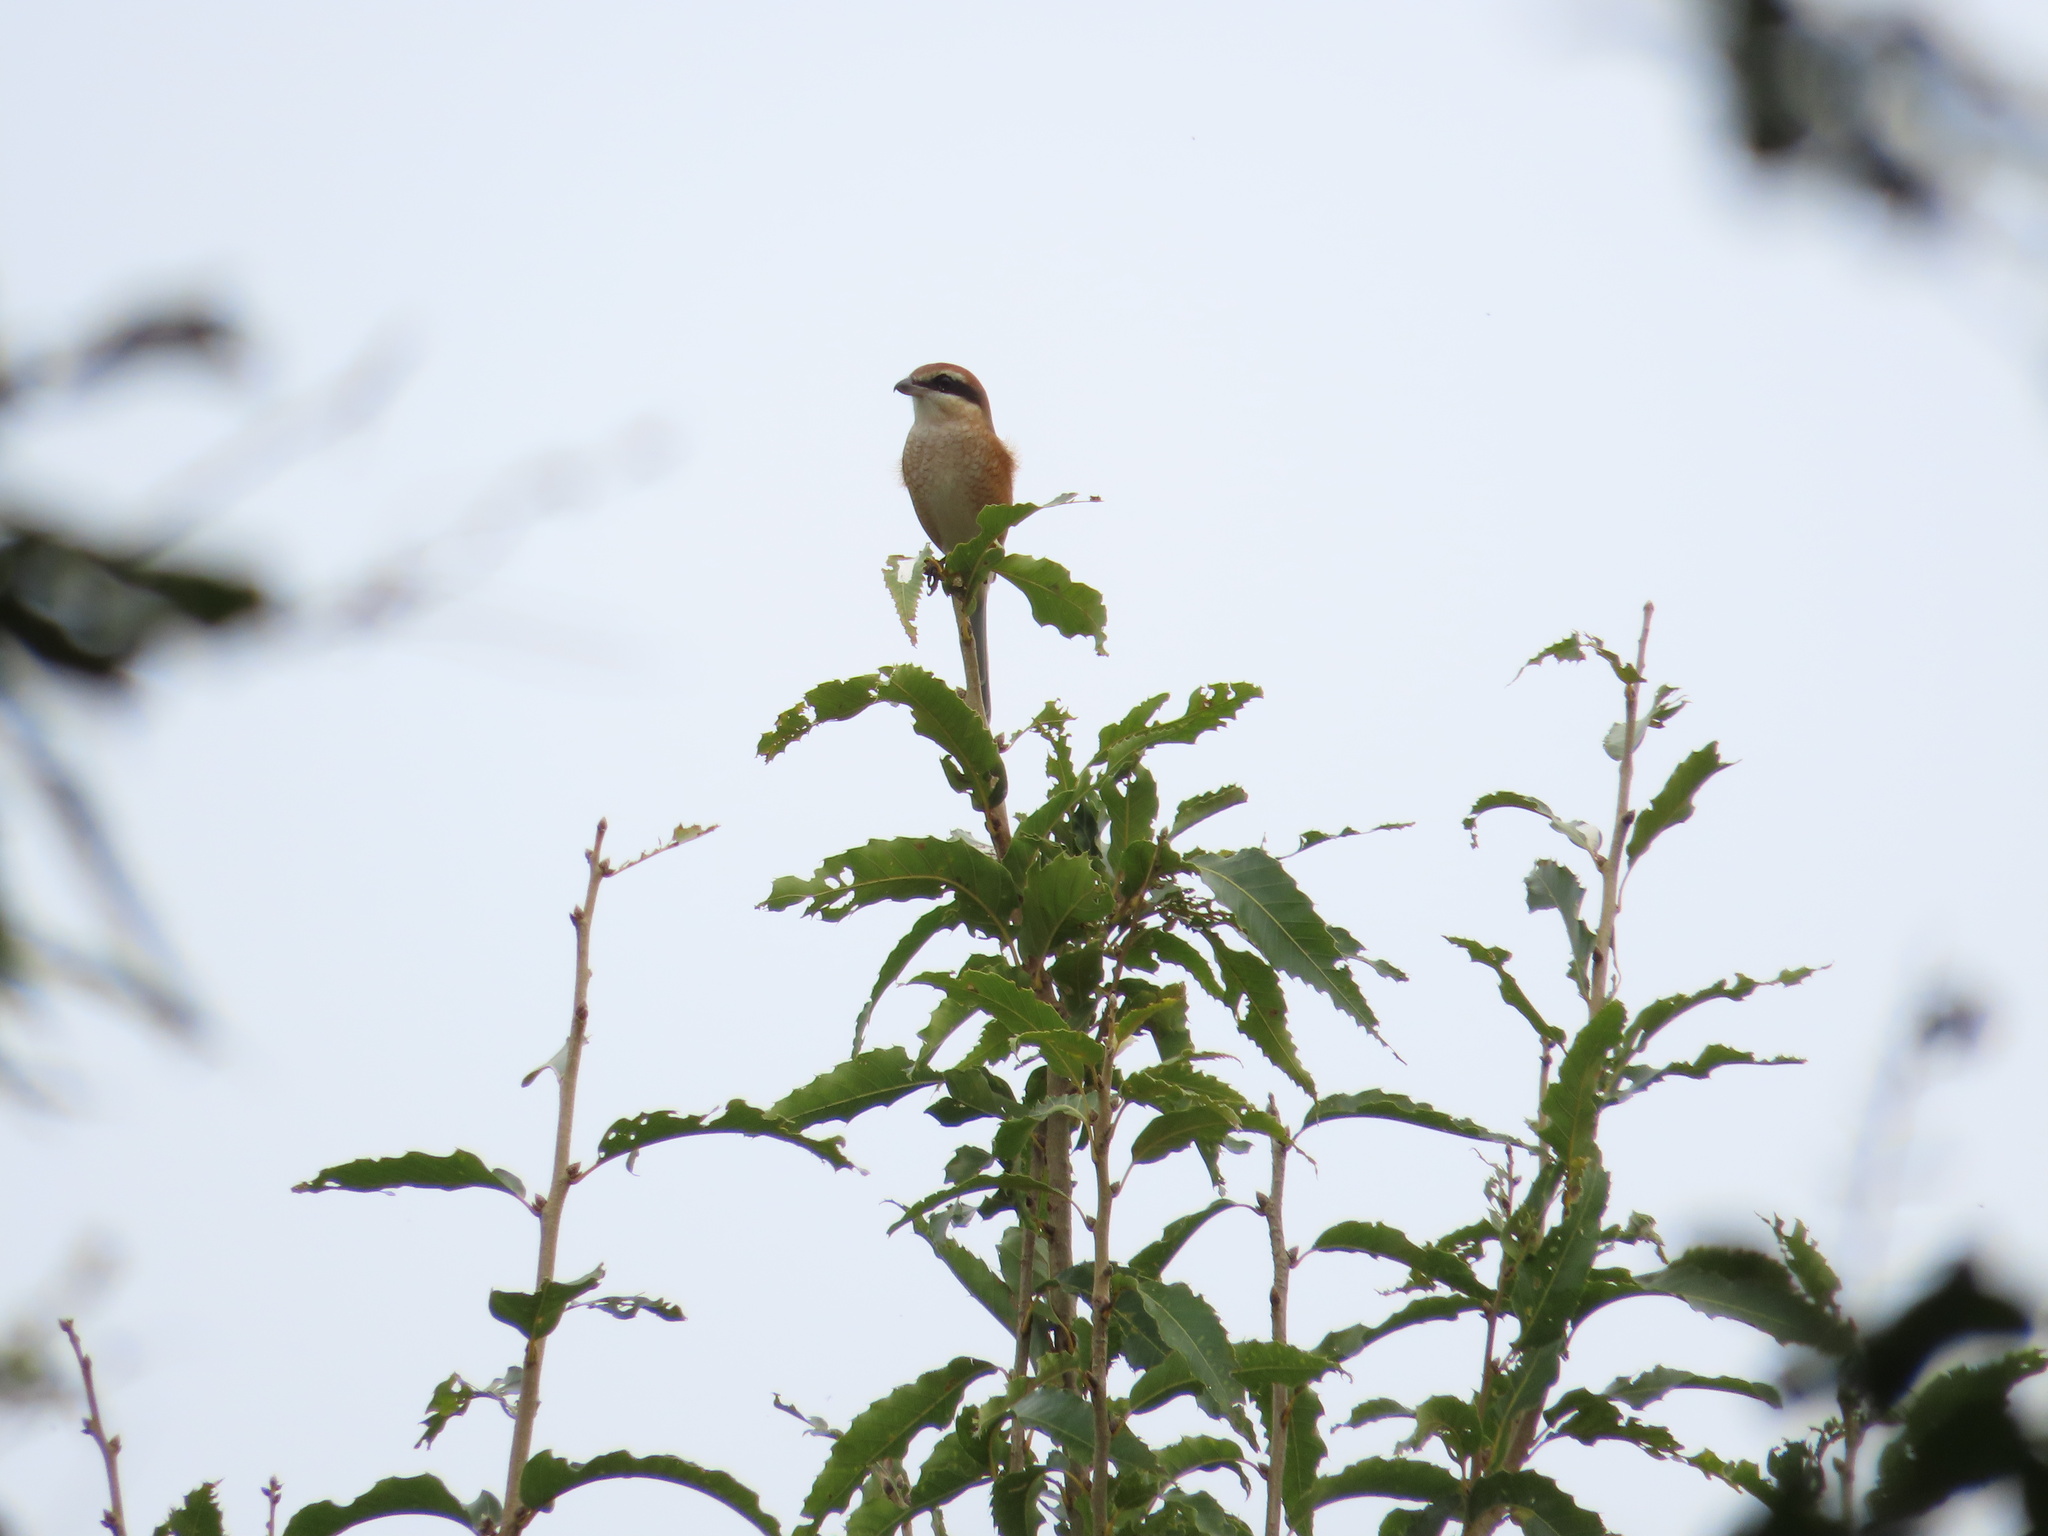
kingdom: Animalia
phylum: Chordata
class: Aves
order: Passeriformes
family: Laniidae
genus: Lanius
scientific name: Lanius bucephalus
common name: Bull-headed shrike
